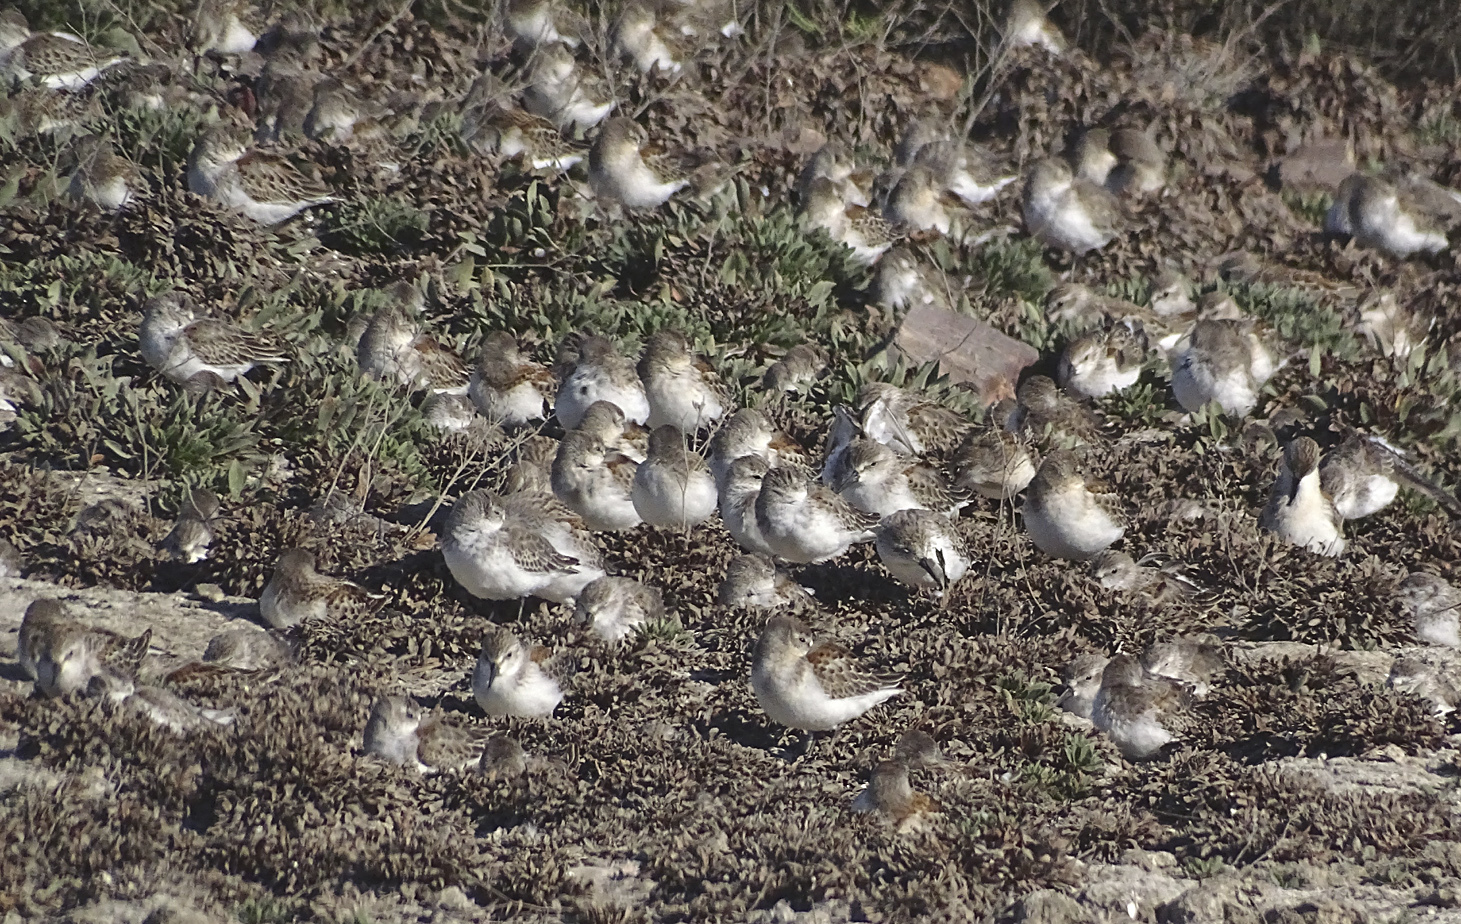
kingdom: Animalia
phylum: Chordata
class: Aves
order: Charadriiformes
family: Scolopacidae
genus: Calidris
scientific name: Calidris mauri
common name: Western sandpiper
